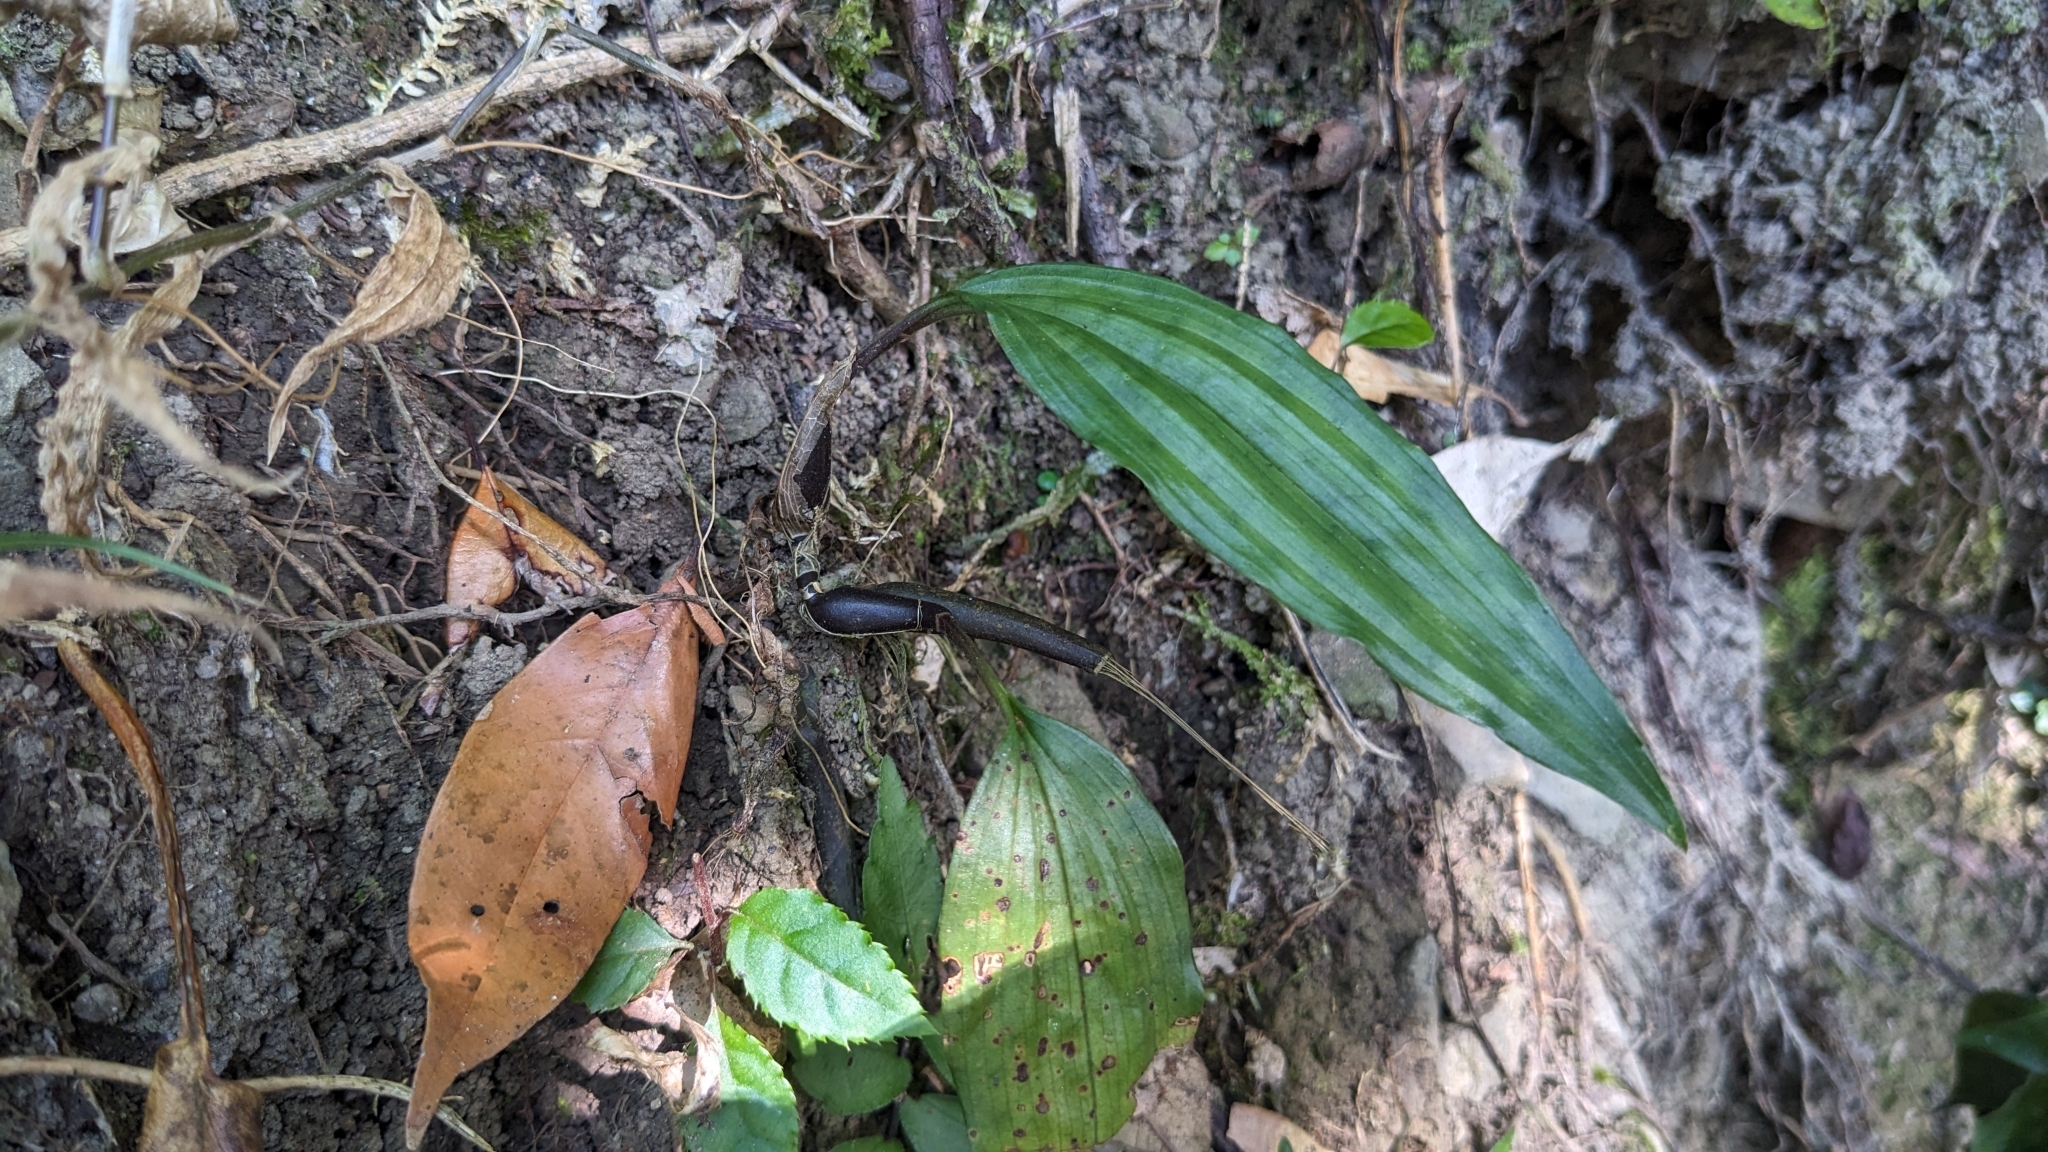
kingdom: Plantae
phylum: Tracheophyta
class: Liliopsida
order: Asparagales
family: Orchidaceae
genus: Tainia
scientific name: Tainia dunnii
